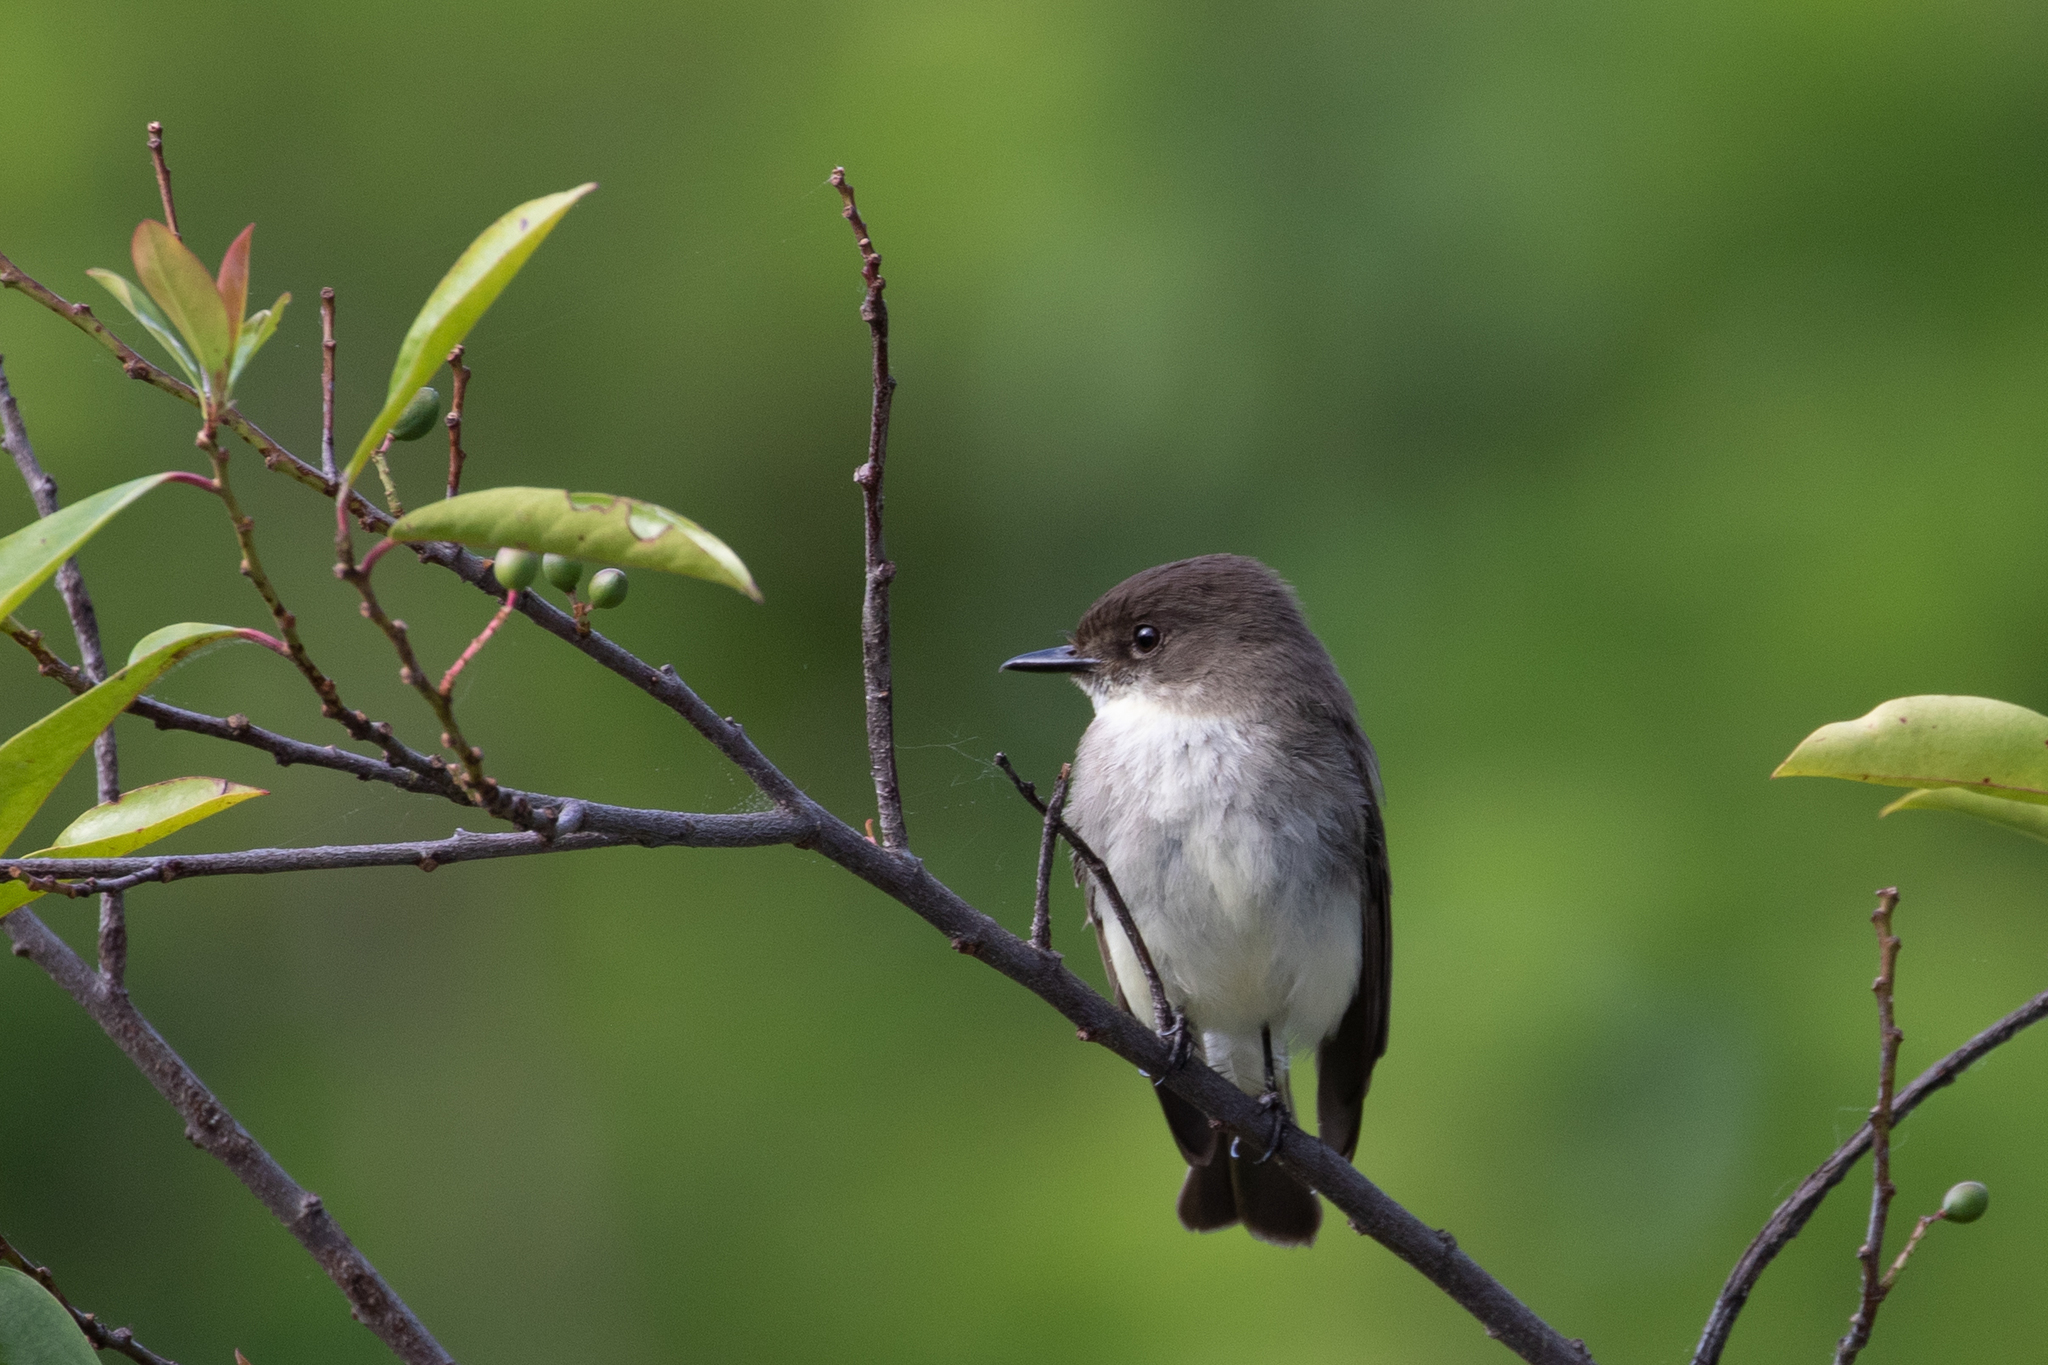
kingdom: Animalia
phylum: Chordata
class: Aves
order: Passeriformes
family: Tyrannidae
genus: Sayornis
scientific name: Sayornis phoebe
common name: Eastern phoebe
